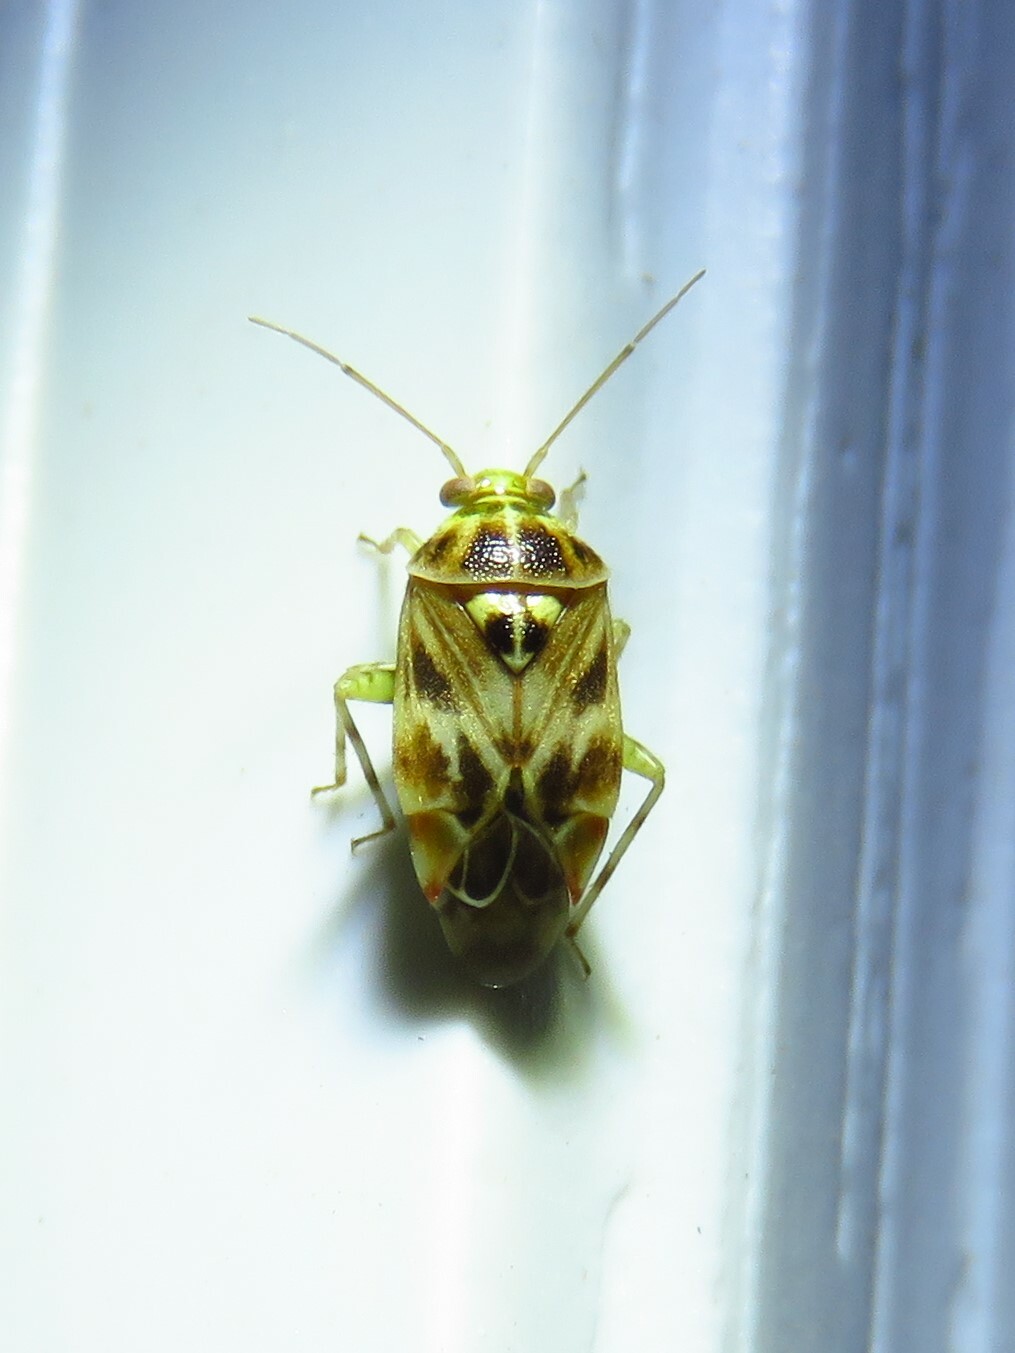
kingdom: Animalia
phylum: Arthropoda
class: Insecta
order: Hemiptera
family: Miridae
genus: Tropidosteptes
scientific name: Tropidosteptes quercicola
